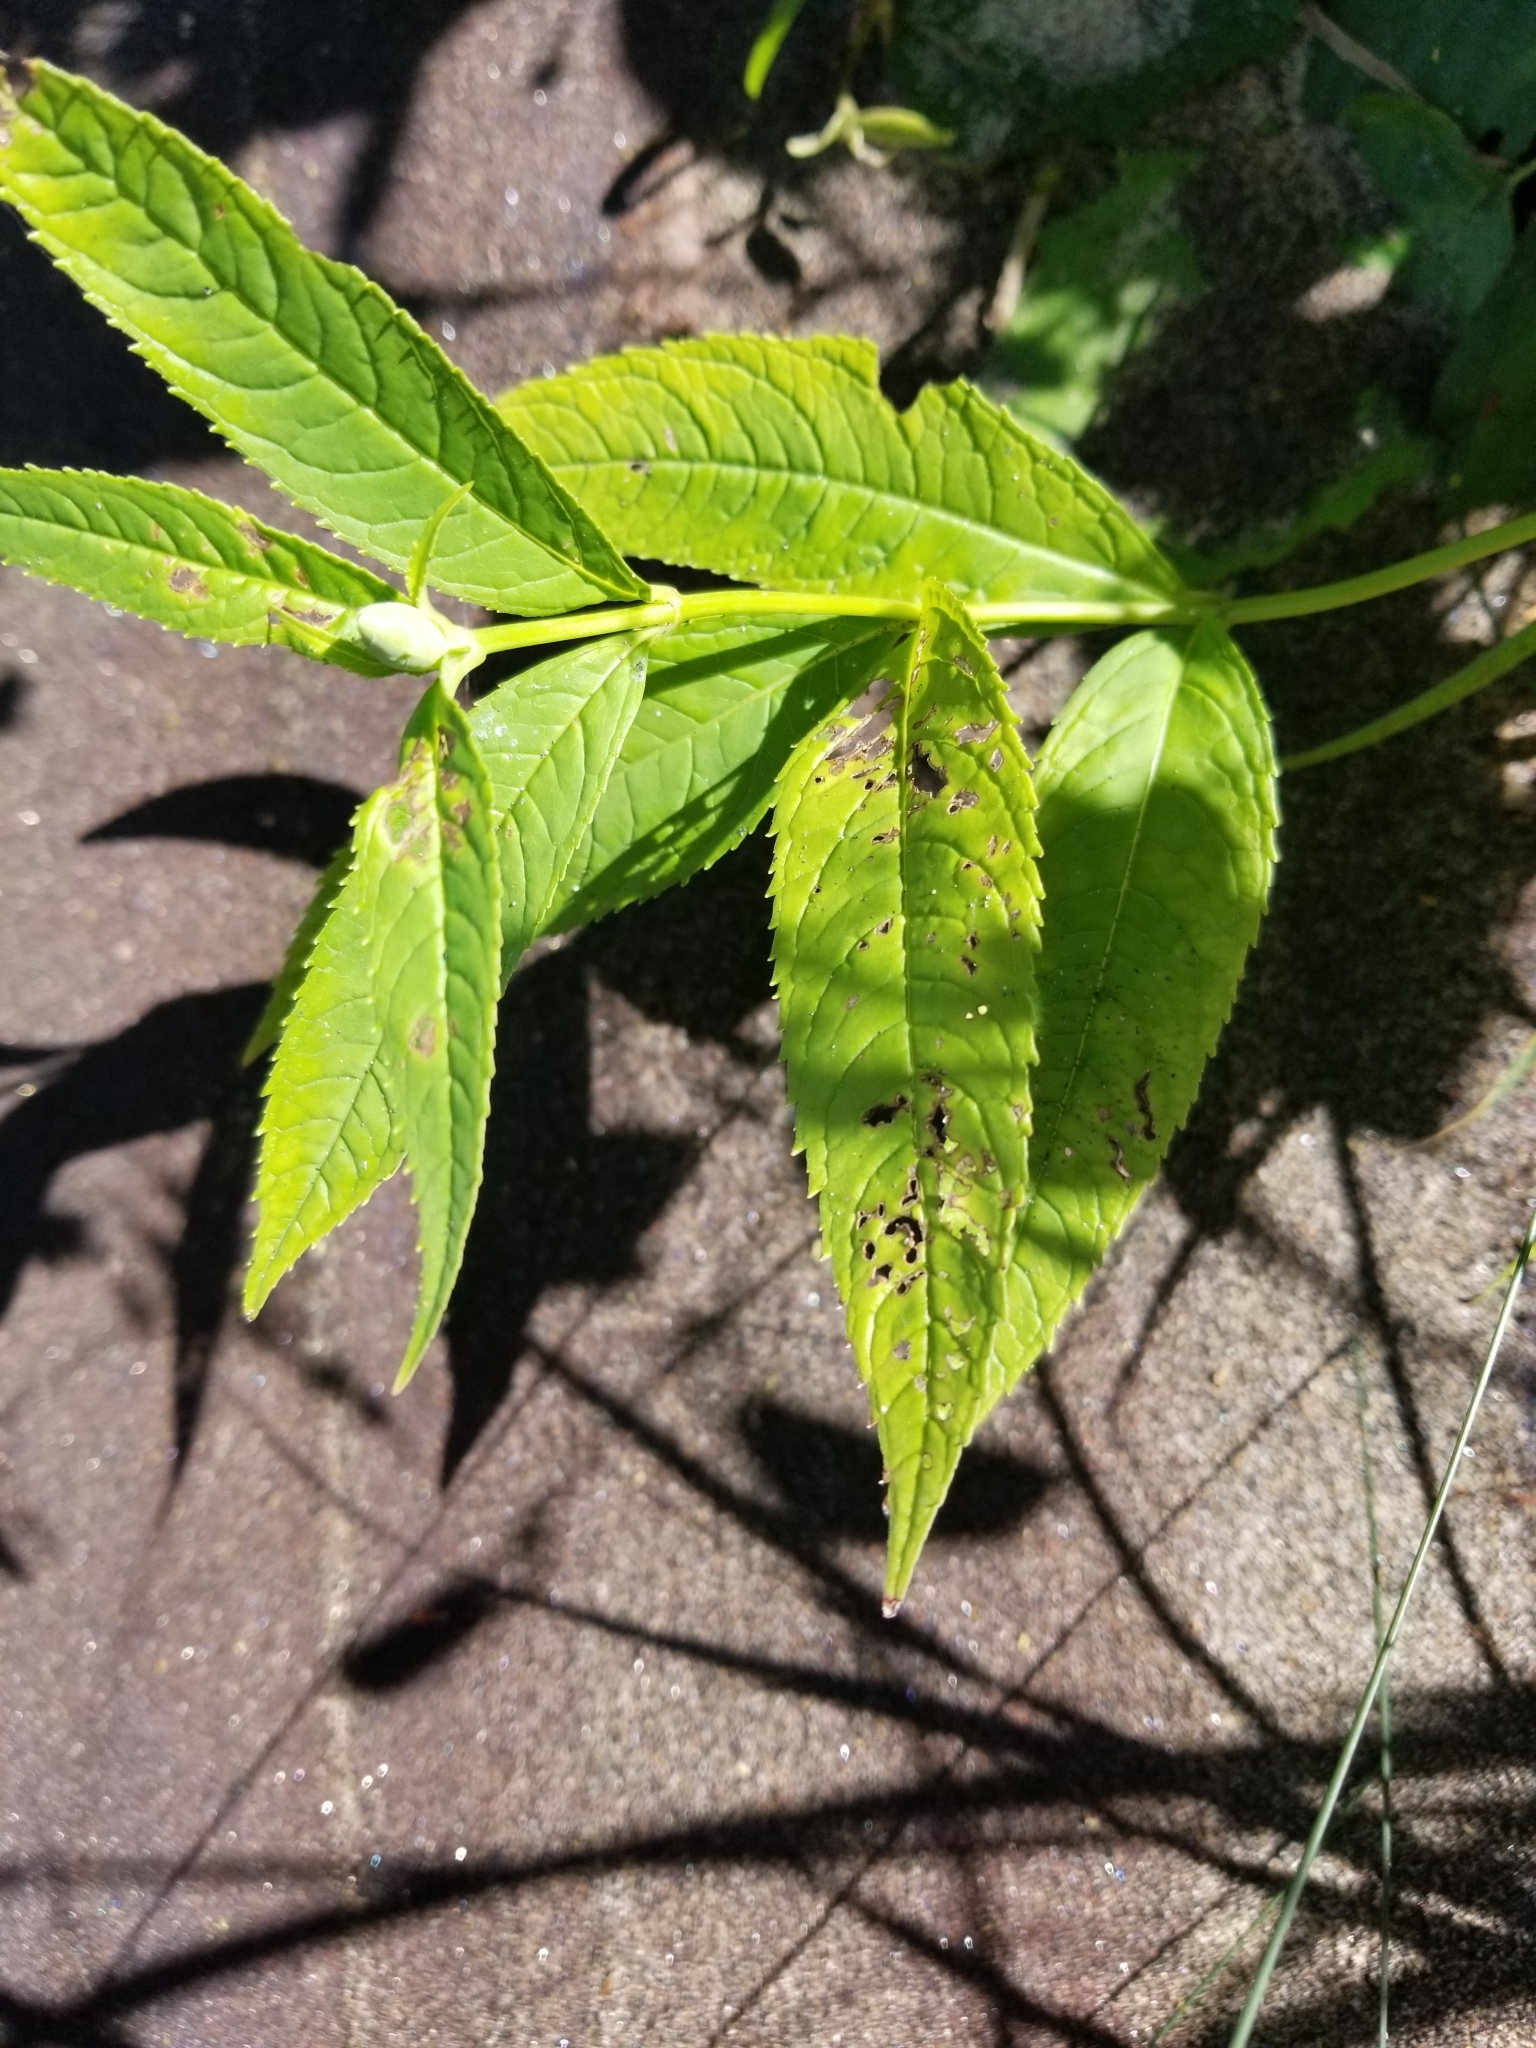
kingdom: Plantae
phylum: Tracheophyta
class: Magnoliopsida
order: Lamiales
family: Plantaginaceae
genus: Chelone
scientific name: Chelone glabra
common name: Snakehead
